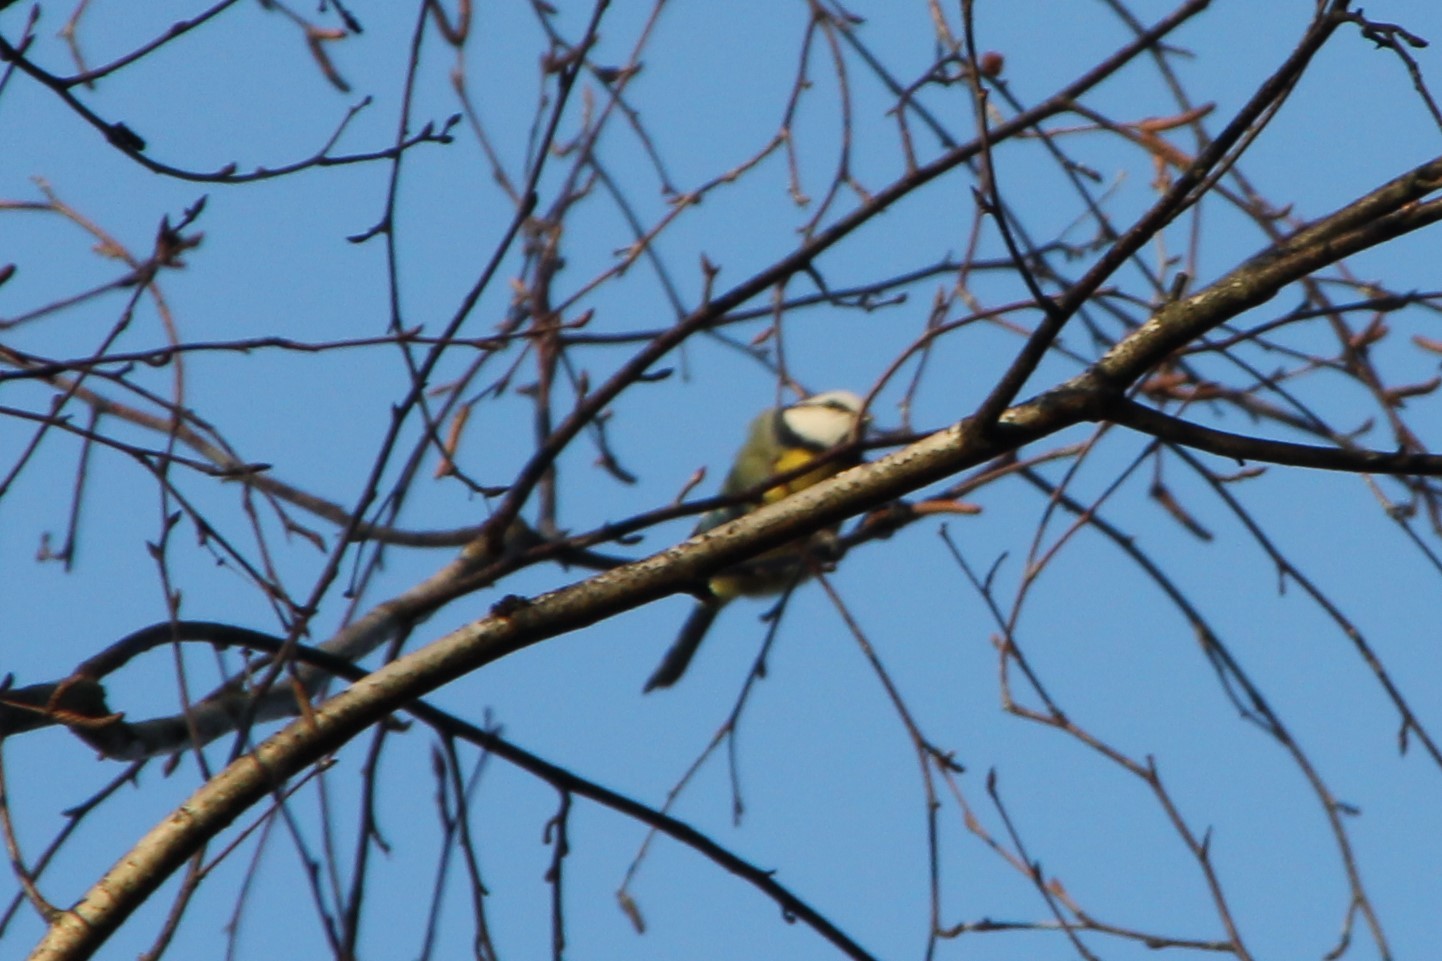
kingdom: Animalia
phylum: Chordata
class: Aves
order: Passeriformes
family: Paridae
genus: Cyanistes
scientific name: Cyanistes caeruleus
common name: Eurasian blue tit
